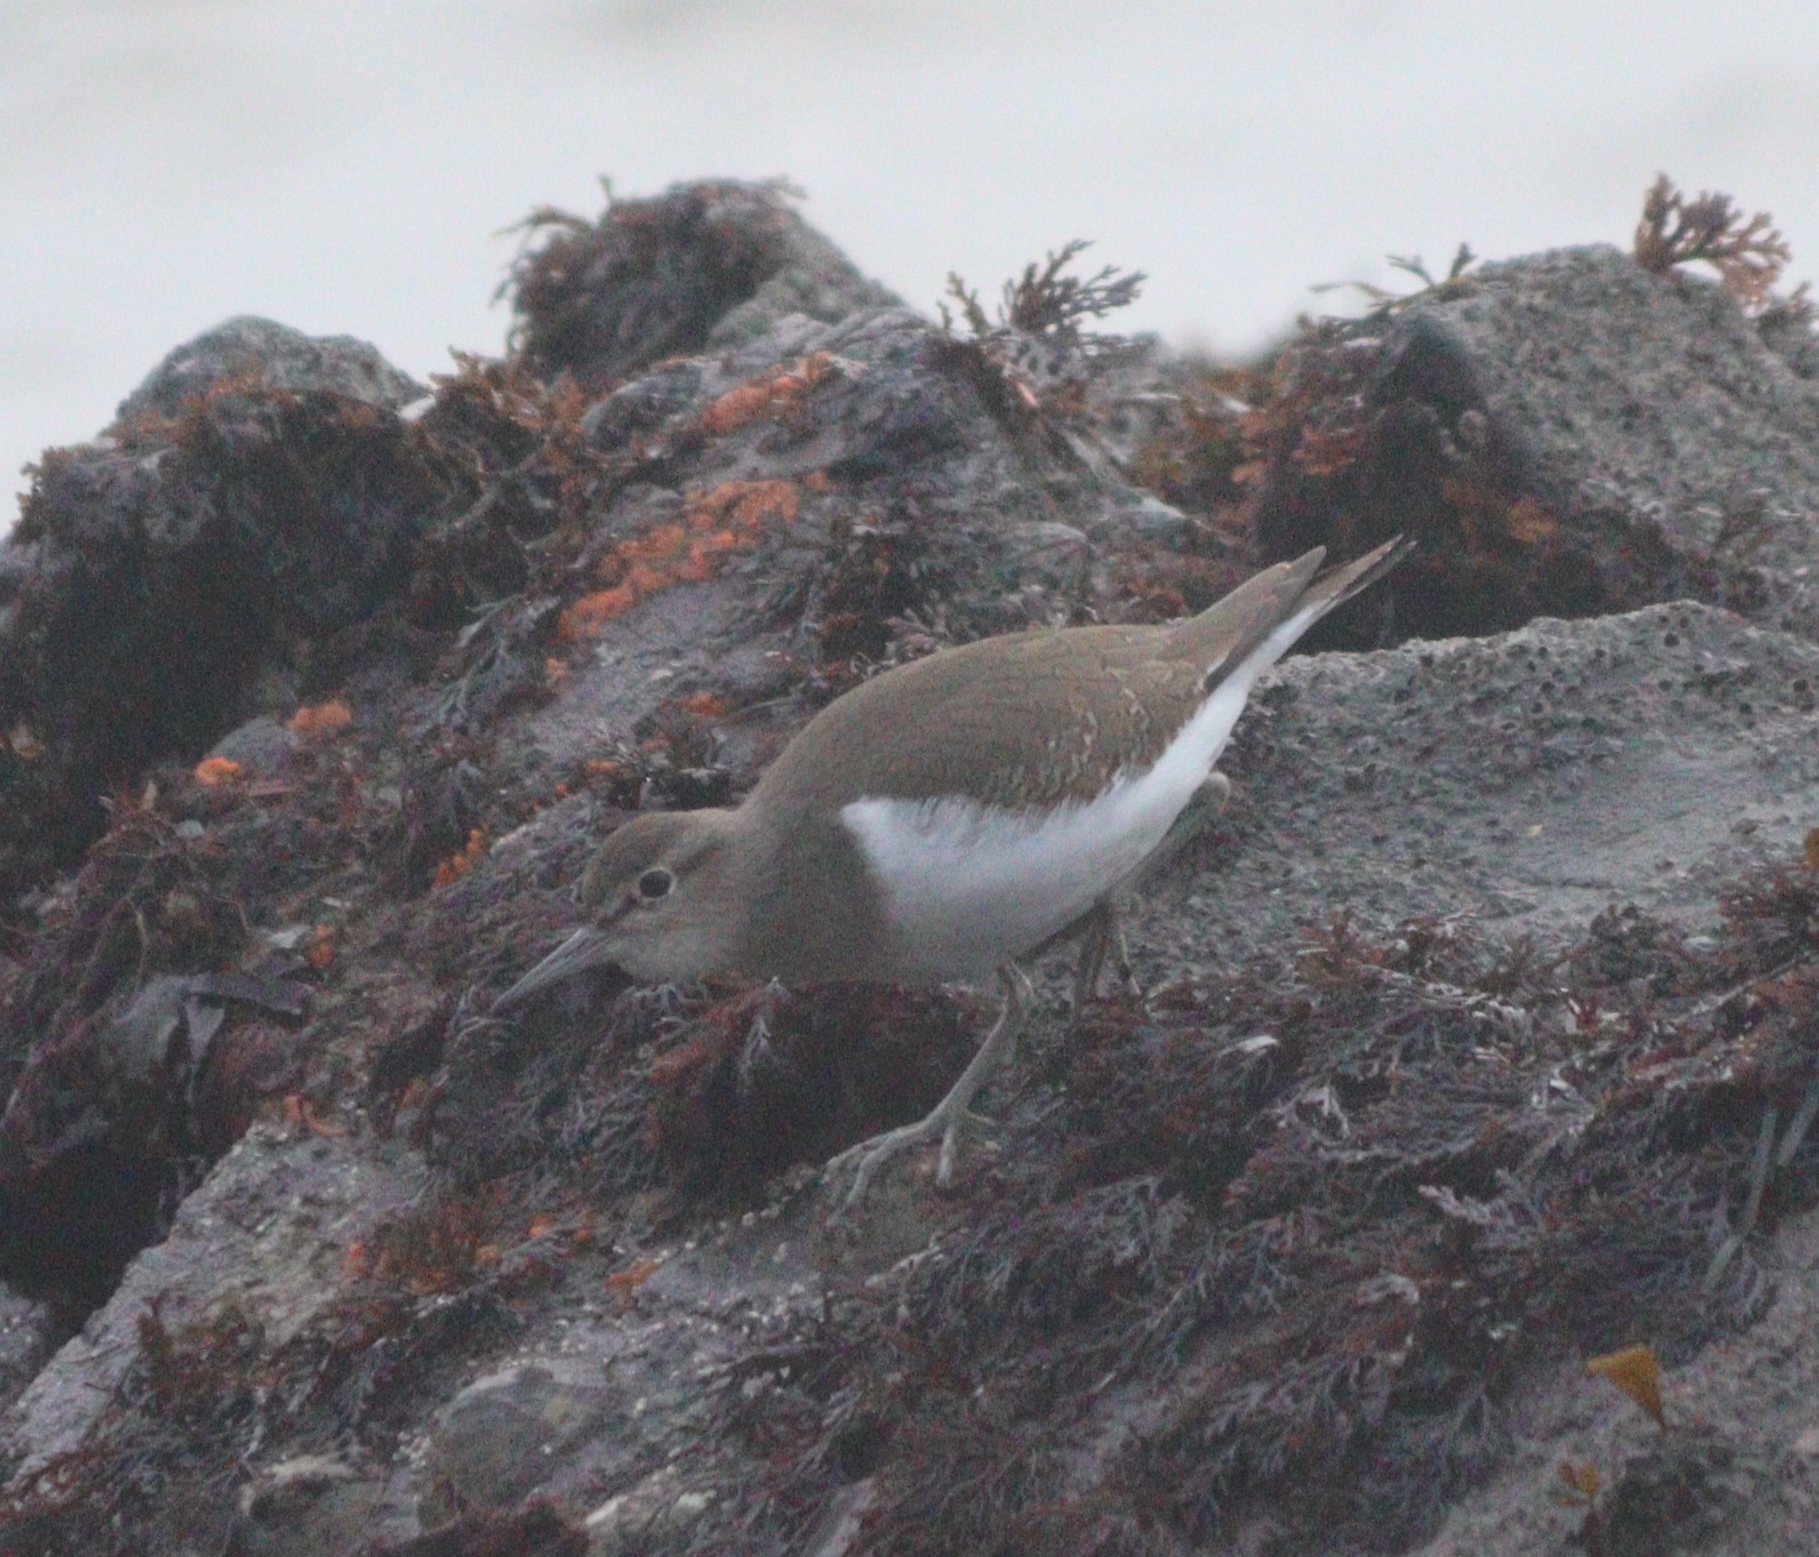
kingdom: Animalia
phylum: Chordata
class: Aves
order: Charadriiformes
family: Scolopacidae
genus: Actitis
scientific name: Actitis hypoleucos
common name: Common sandpiper
